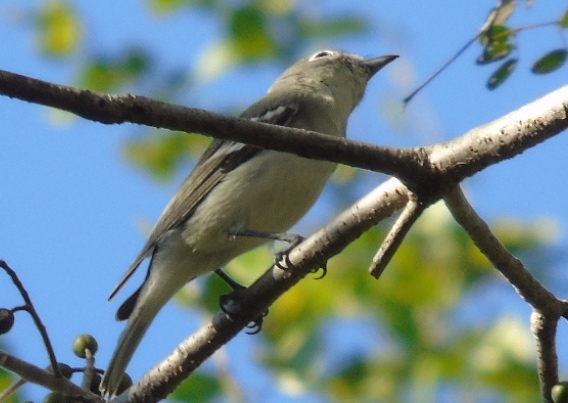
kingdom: Animalia
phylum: Chordata
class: Aves
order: Passeriformes
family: Vireonidae
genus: Vireo
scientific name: Vireo
